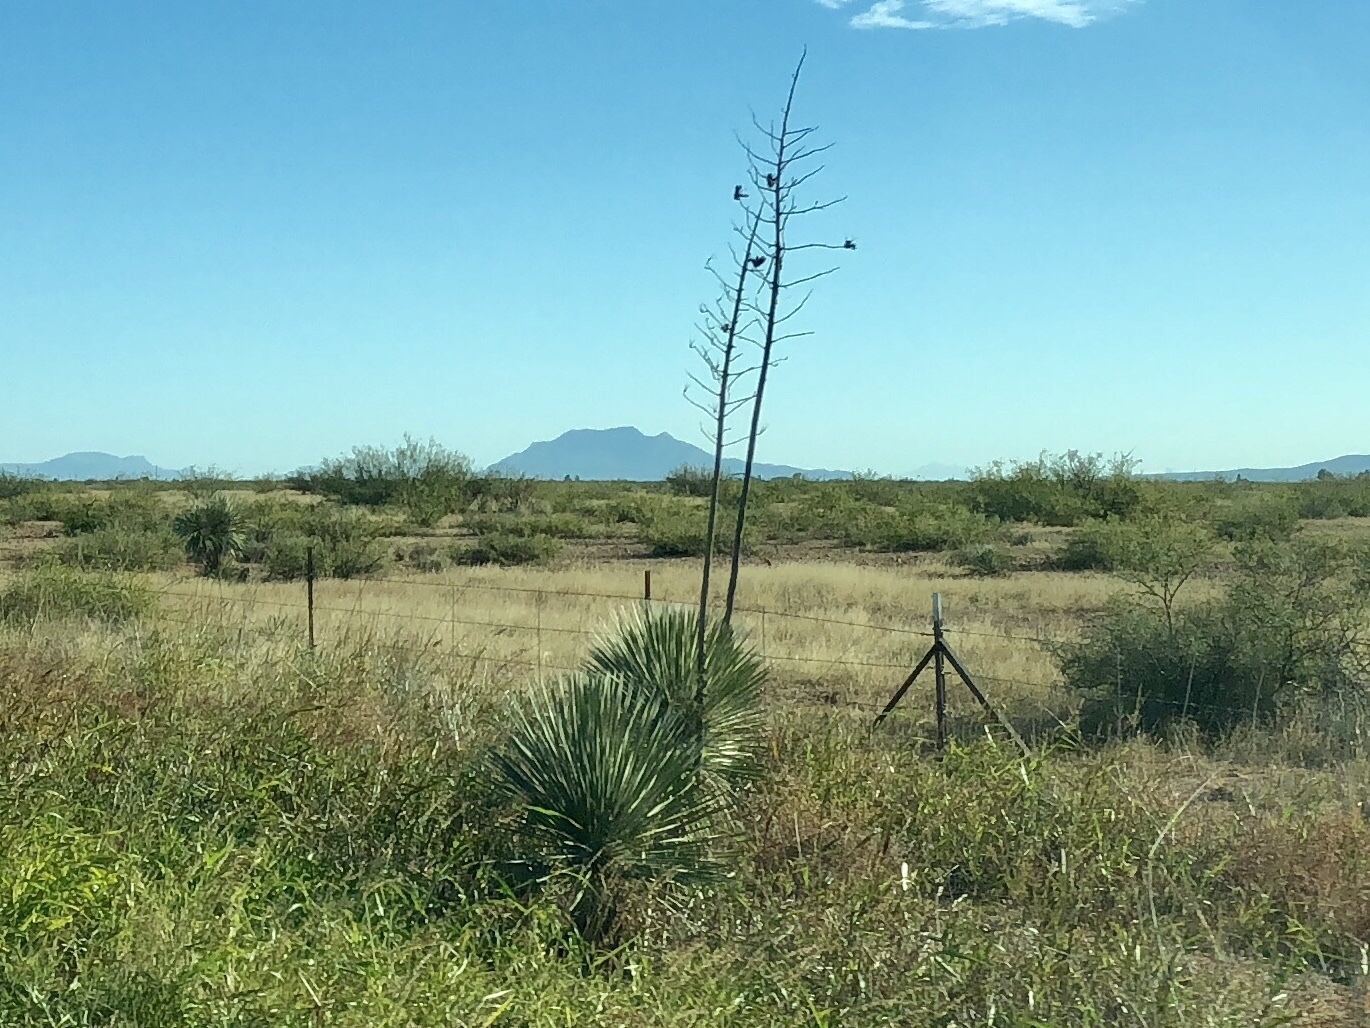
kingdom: Plantae
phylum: Tracheophyta
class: Liliopsida
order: Asparagales
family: Asparagaceae
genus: Yucca
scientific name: Yucca elata
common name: Palmella
